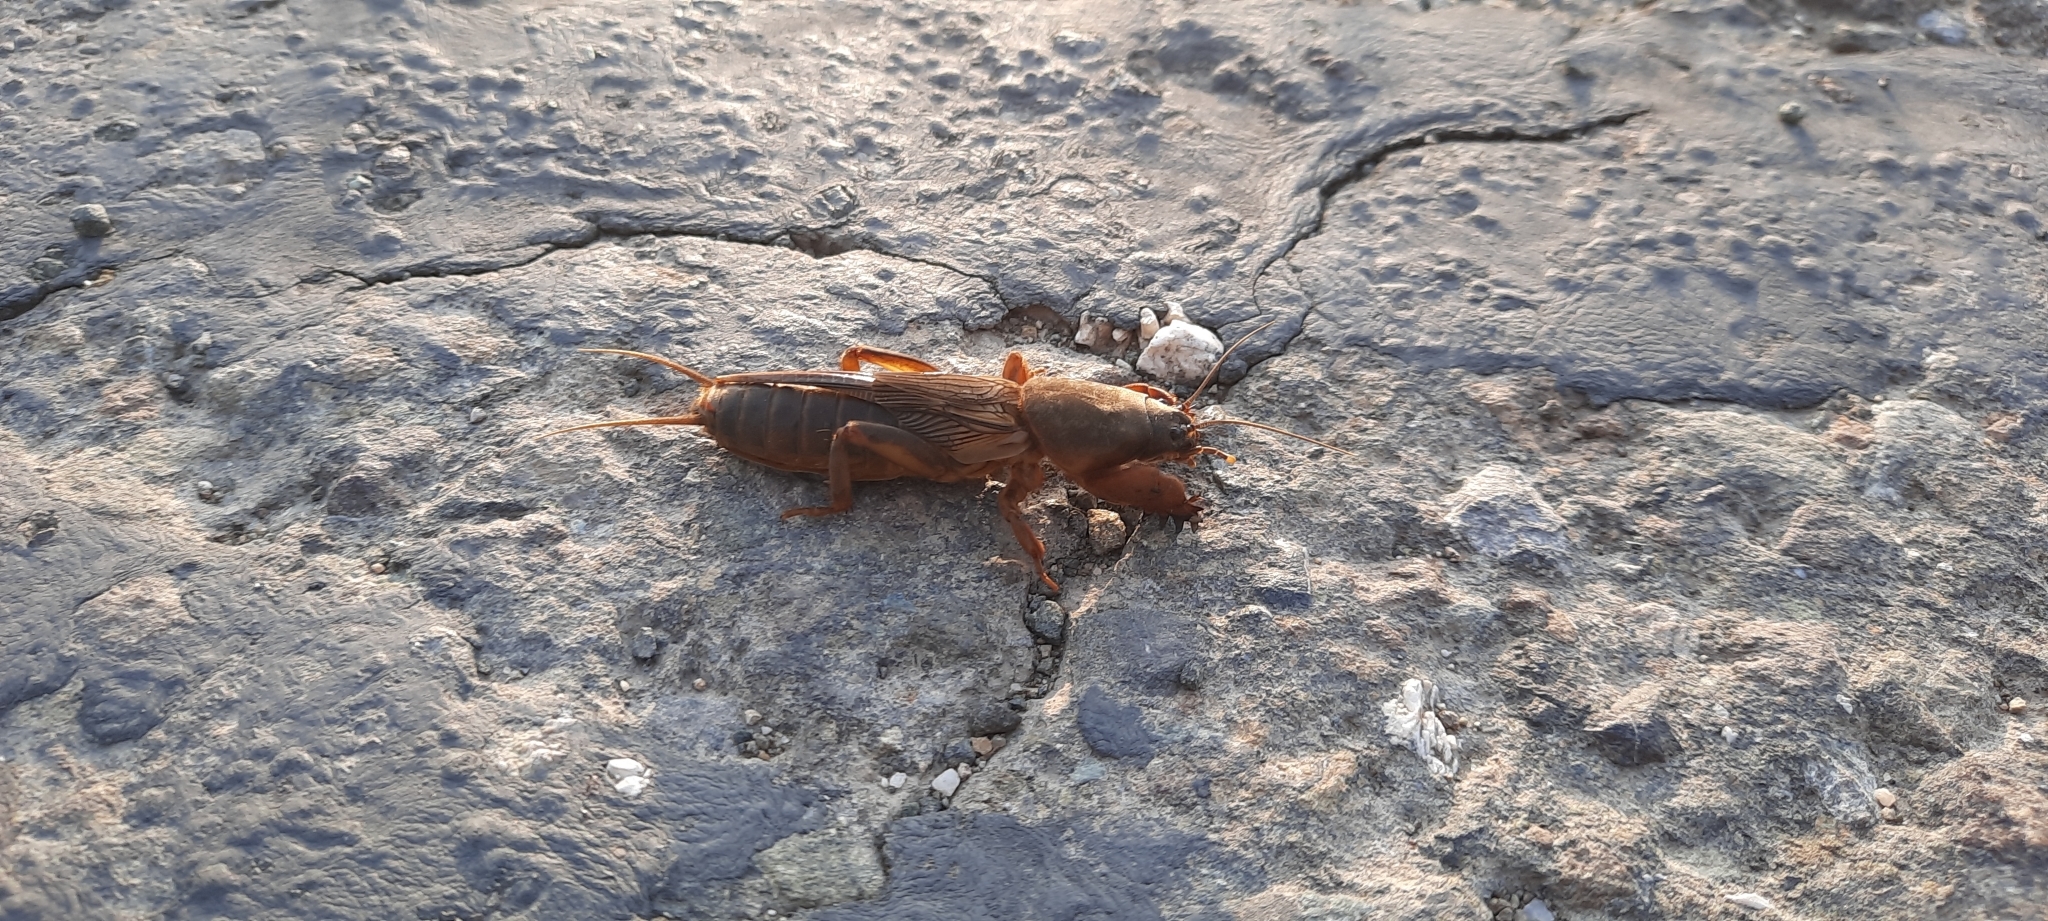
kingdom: Animalia
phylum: Arthropoda
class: Insecta
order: Orthoptera
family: Gryllotalpidae
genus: Gryllotalpa
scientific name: Gryllotalpa gryllotalpa
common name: European mole cricket
